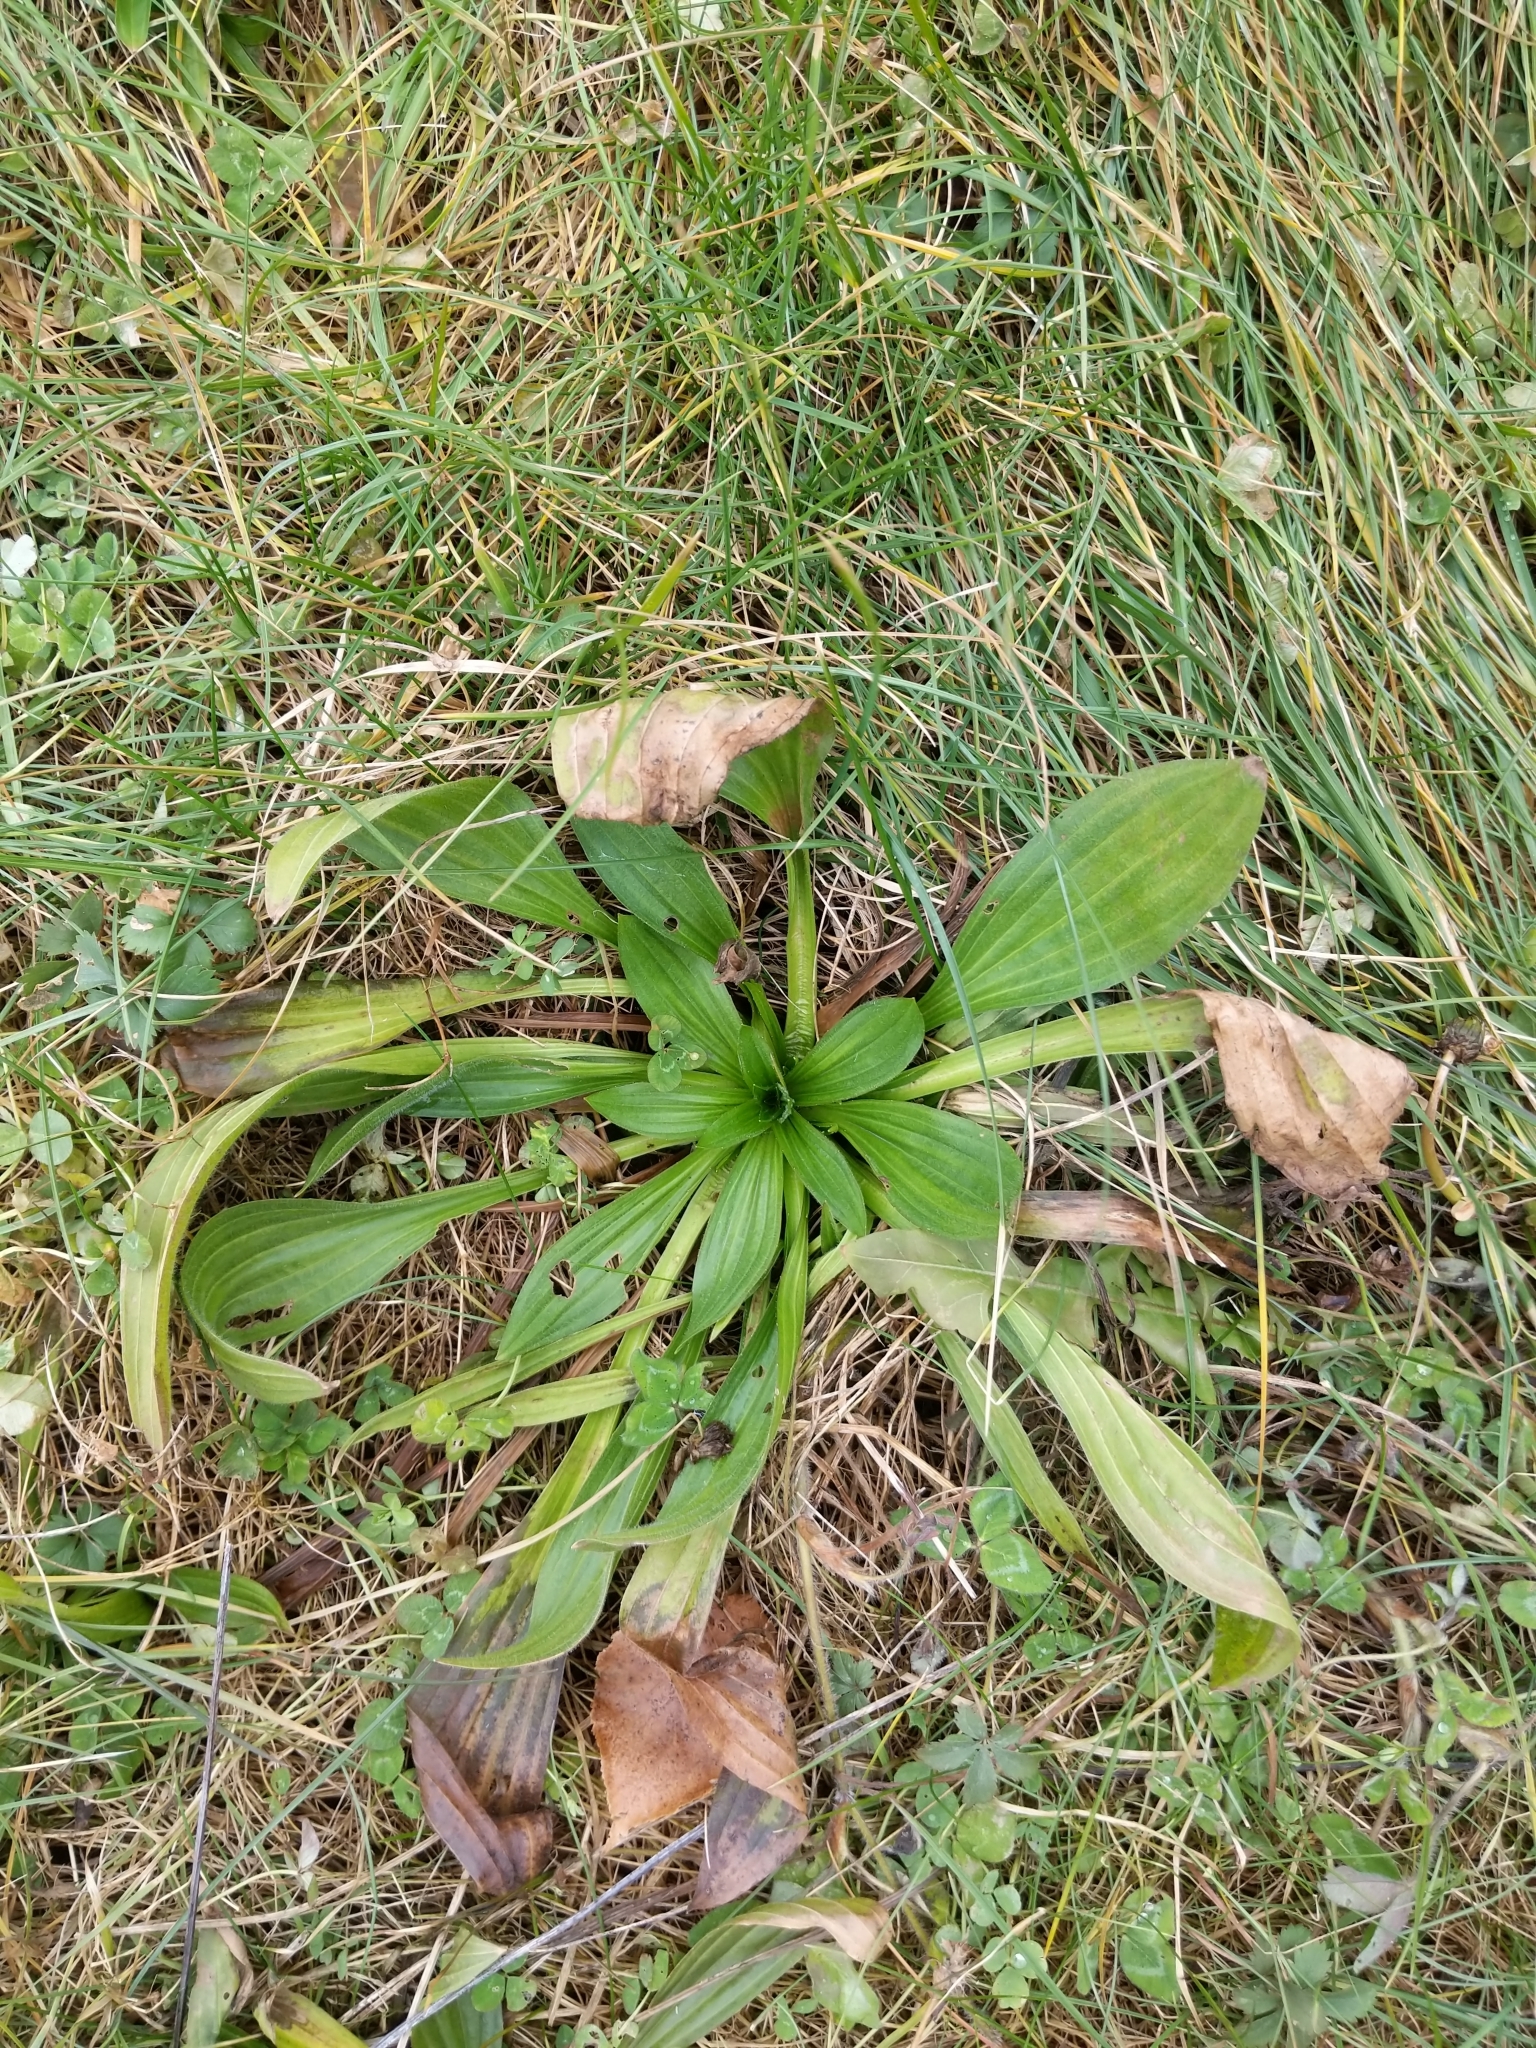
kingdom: Plantae
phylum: Tracheophyta
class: Magnoliopsida
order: Lamiales
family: Plantaginaceae
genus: Plantago
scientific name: Plantago lanceolata
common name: Ribwort plantain
